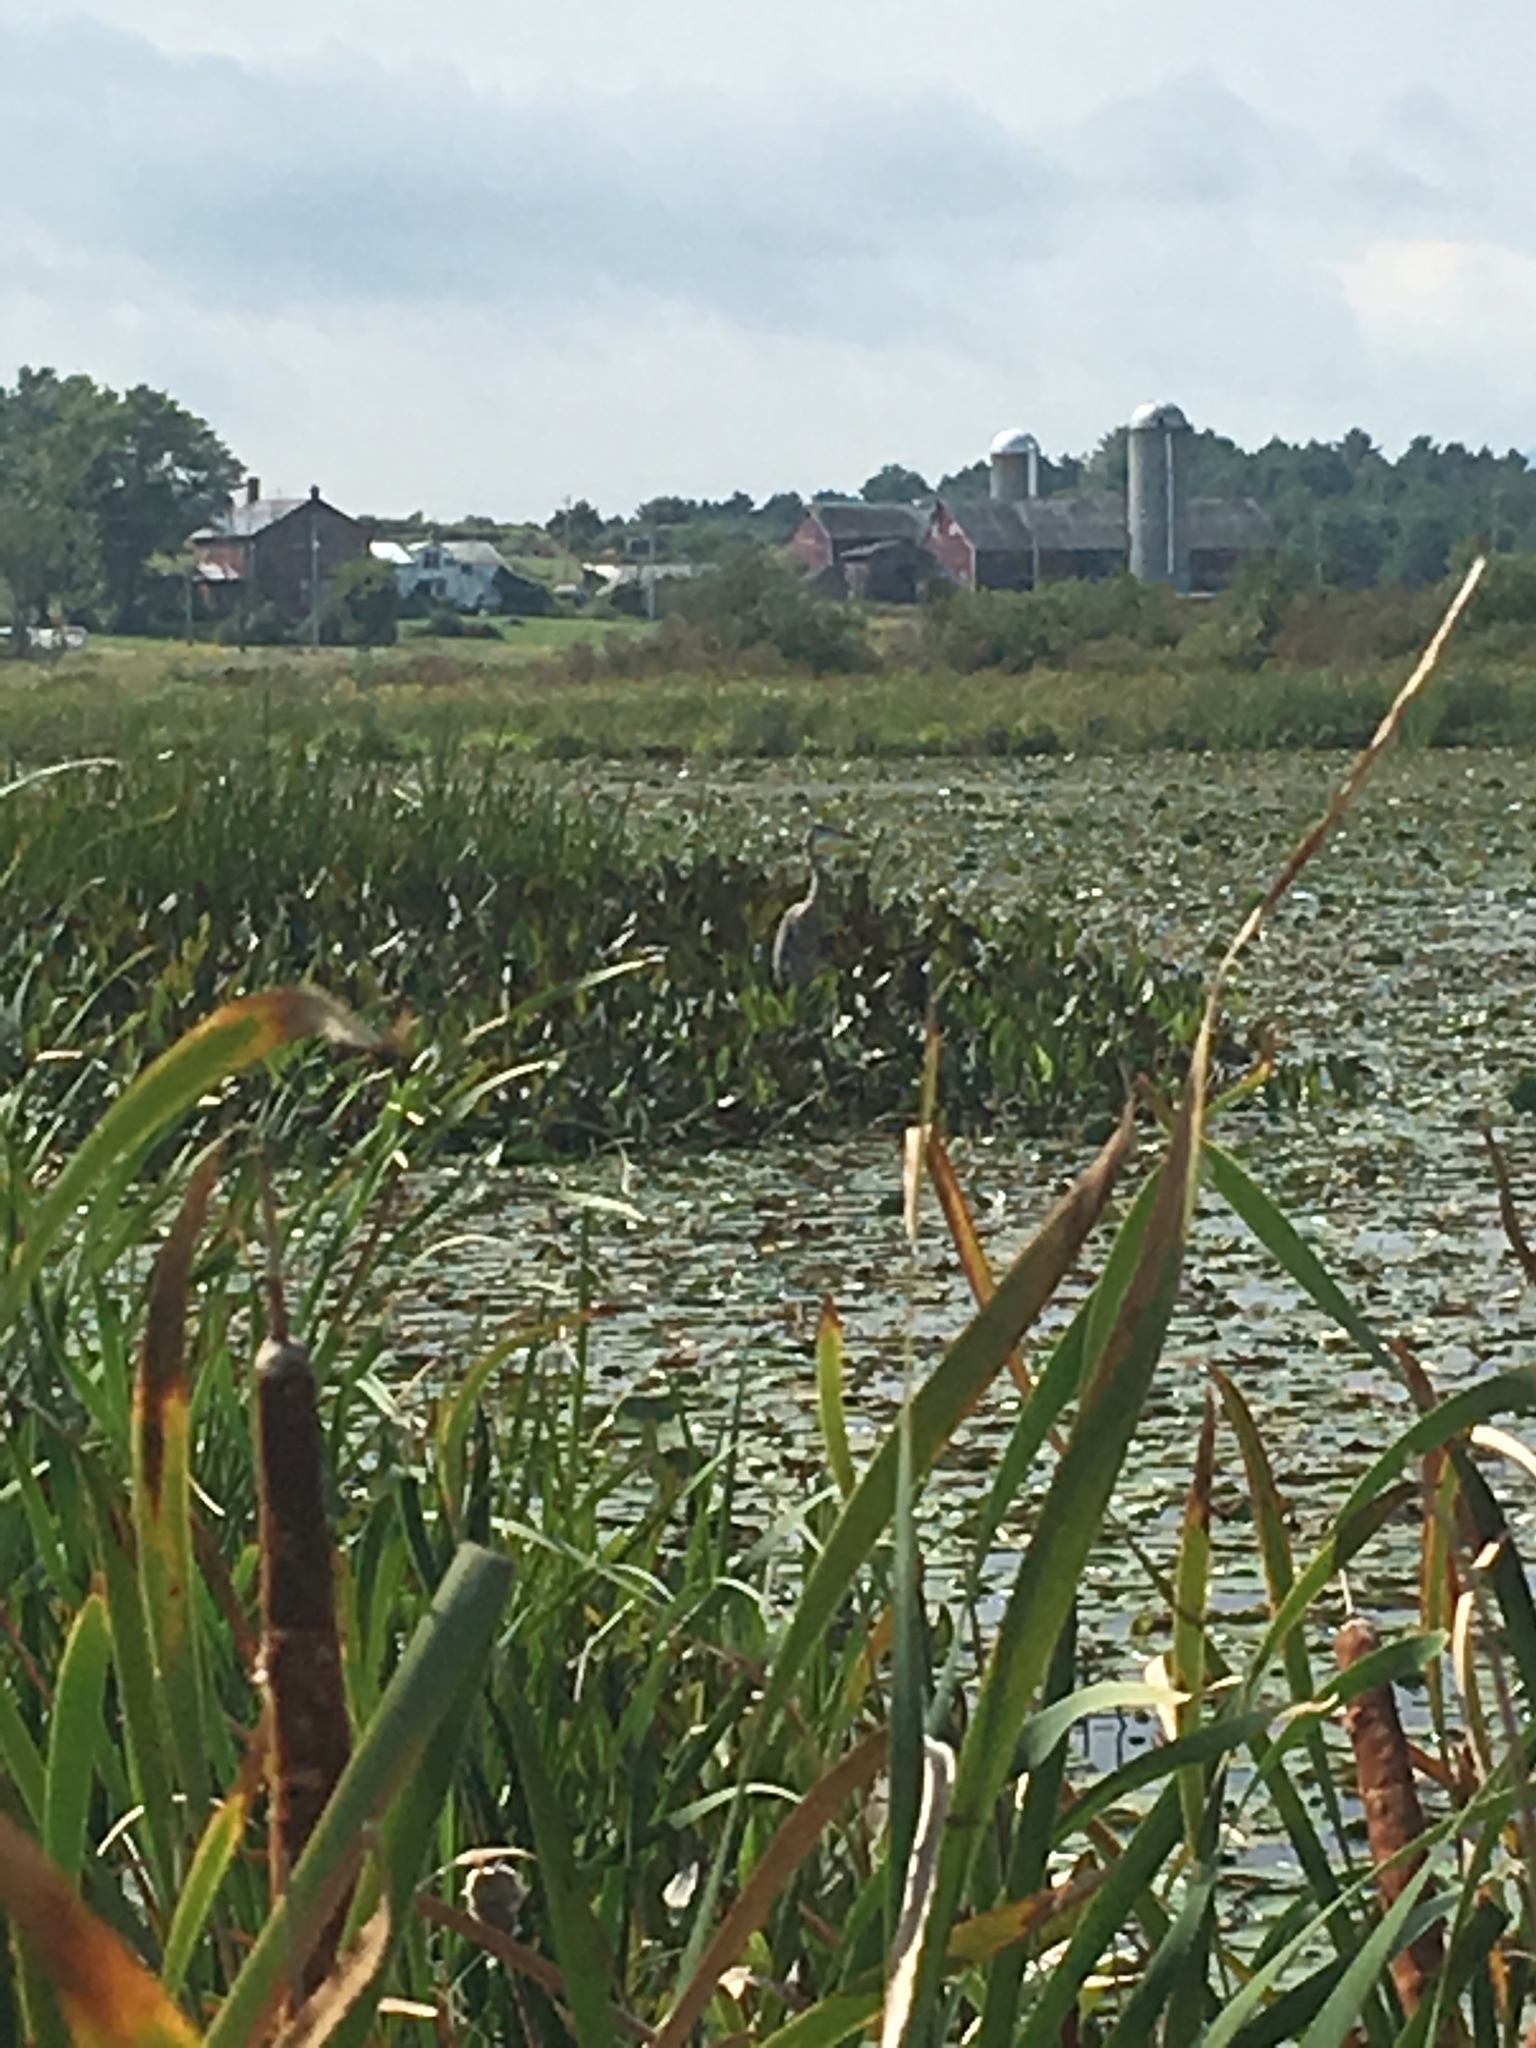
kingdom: Animalia
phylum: Chordata
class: Aves
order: Pelecaniformes
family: Ardeidae
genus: Ardea
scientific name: Ardea herodias
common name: Great blue heron
